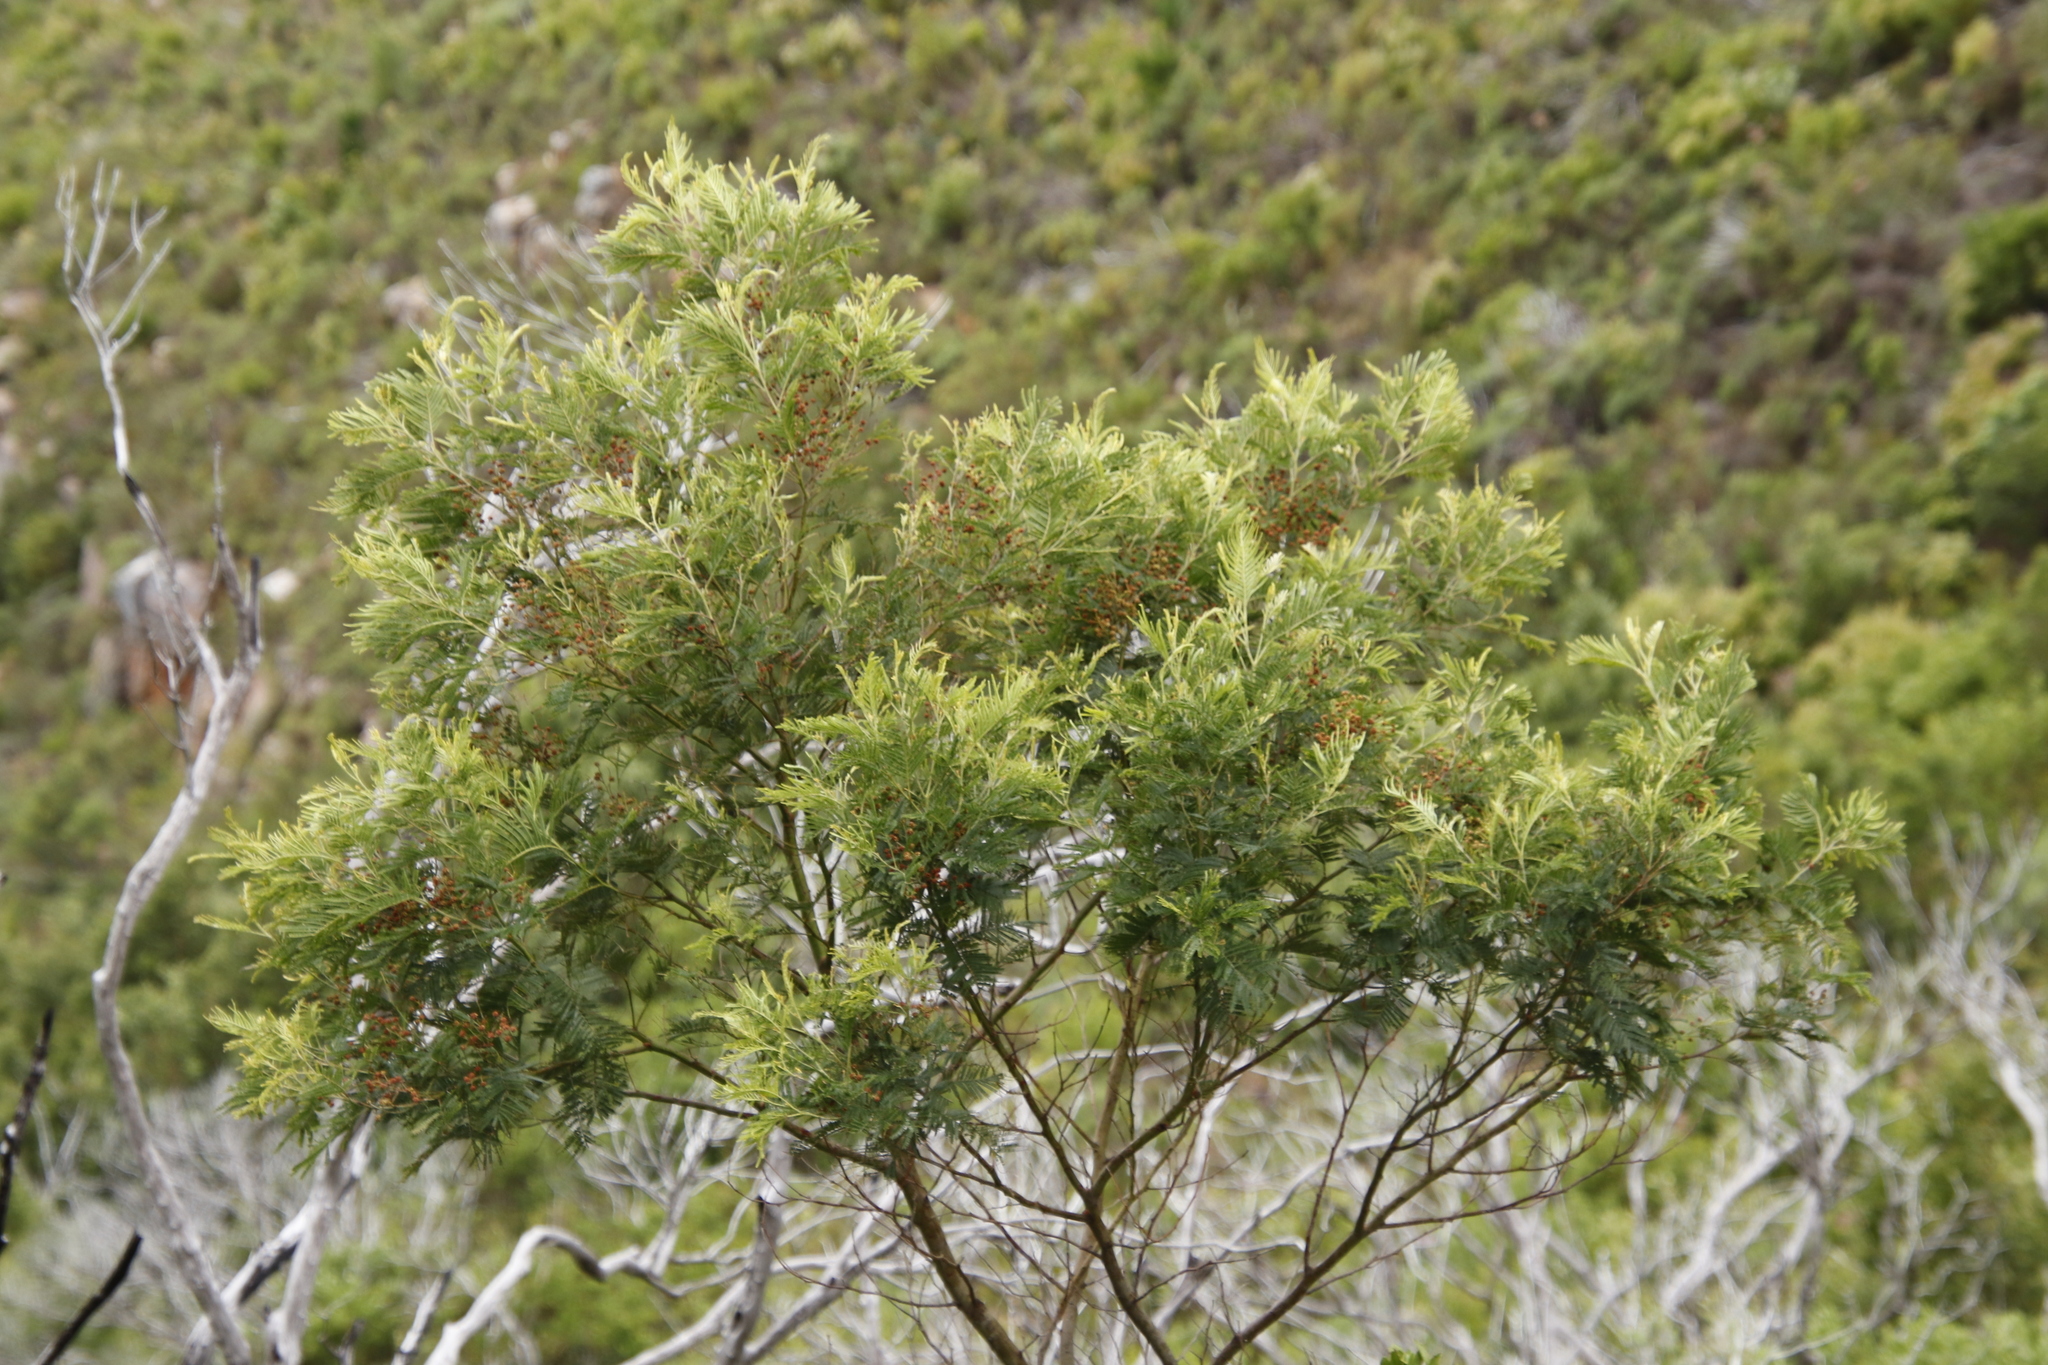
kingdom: Plantae
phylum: Tracheophyta
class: Magnoliopsida
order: Fabales
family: Fabaceae
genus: Acacia
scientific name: Acacia mearnsii
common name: Black wattle
